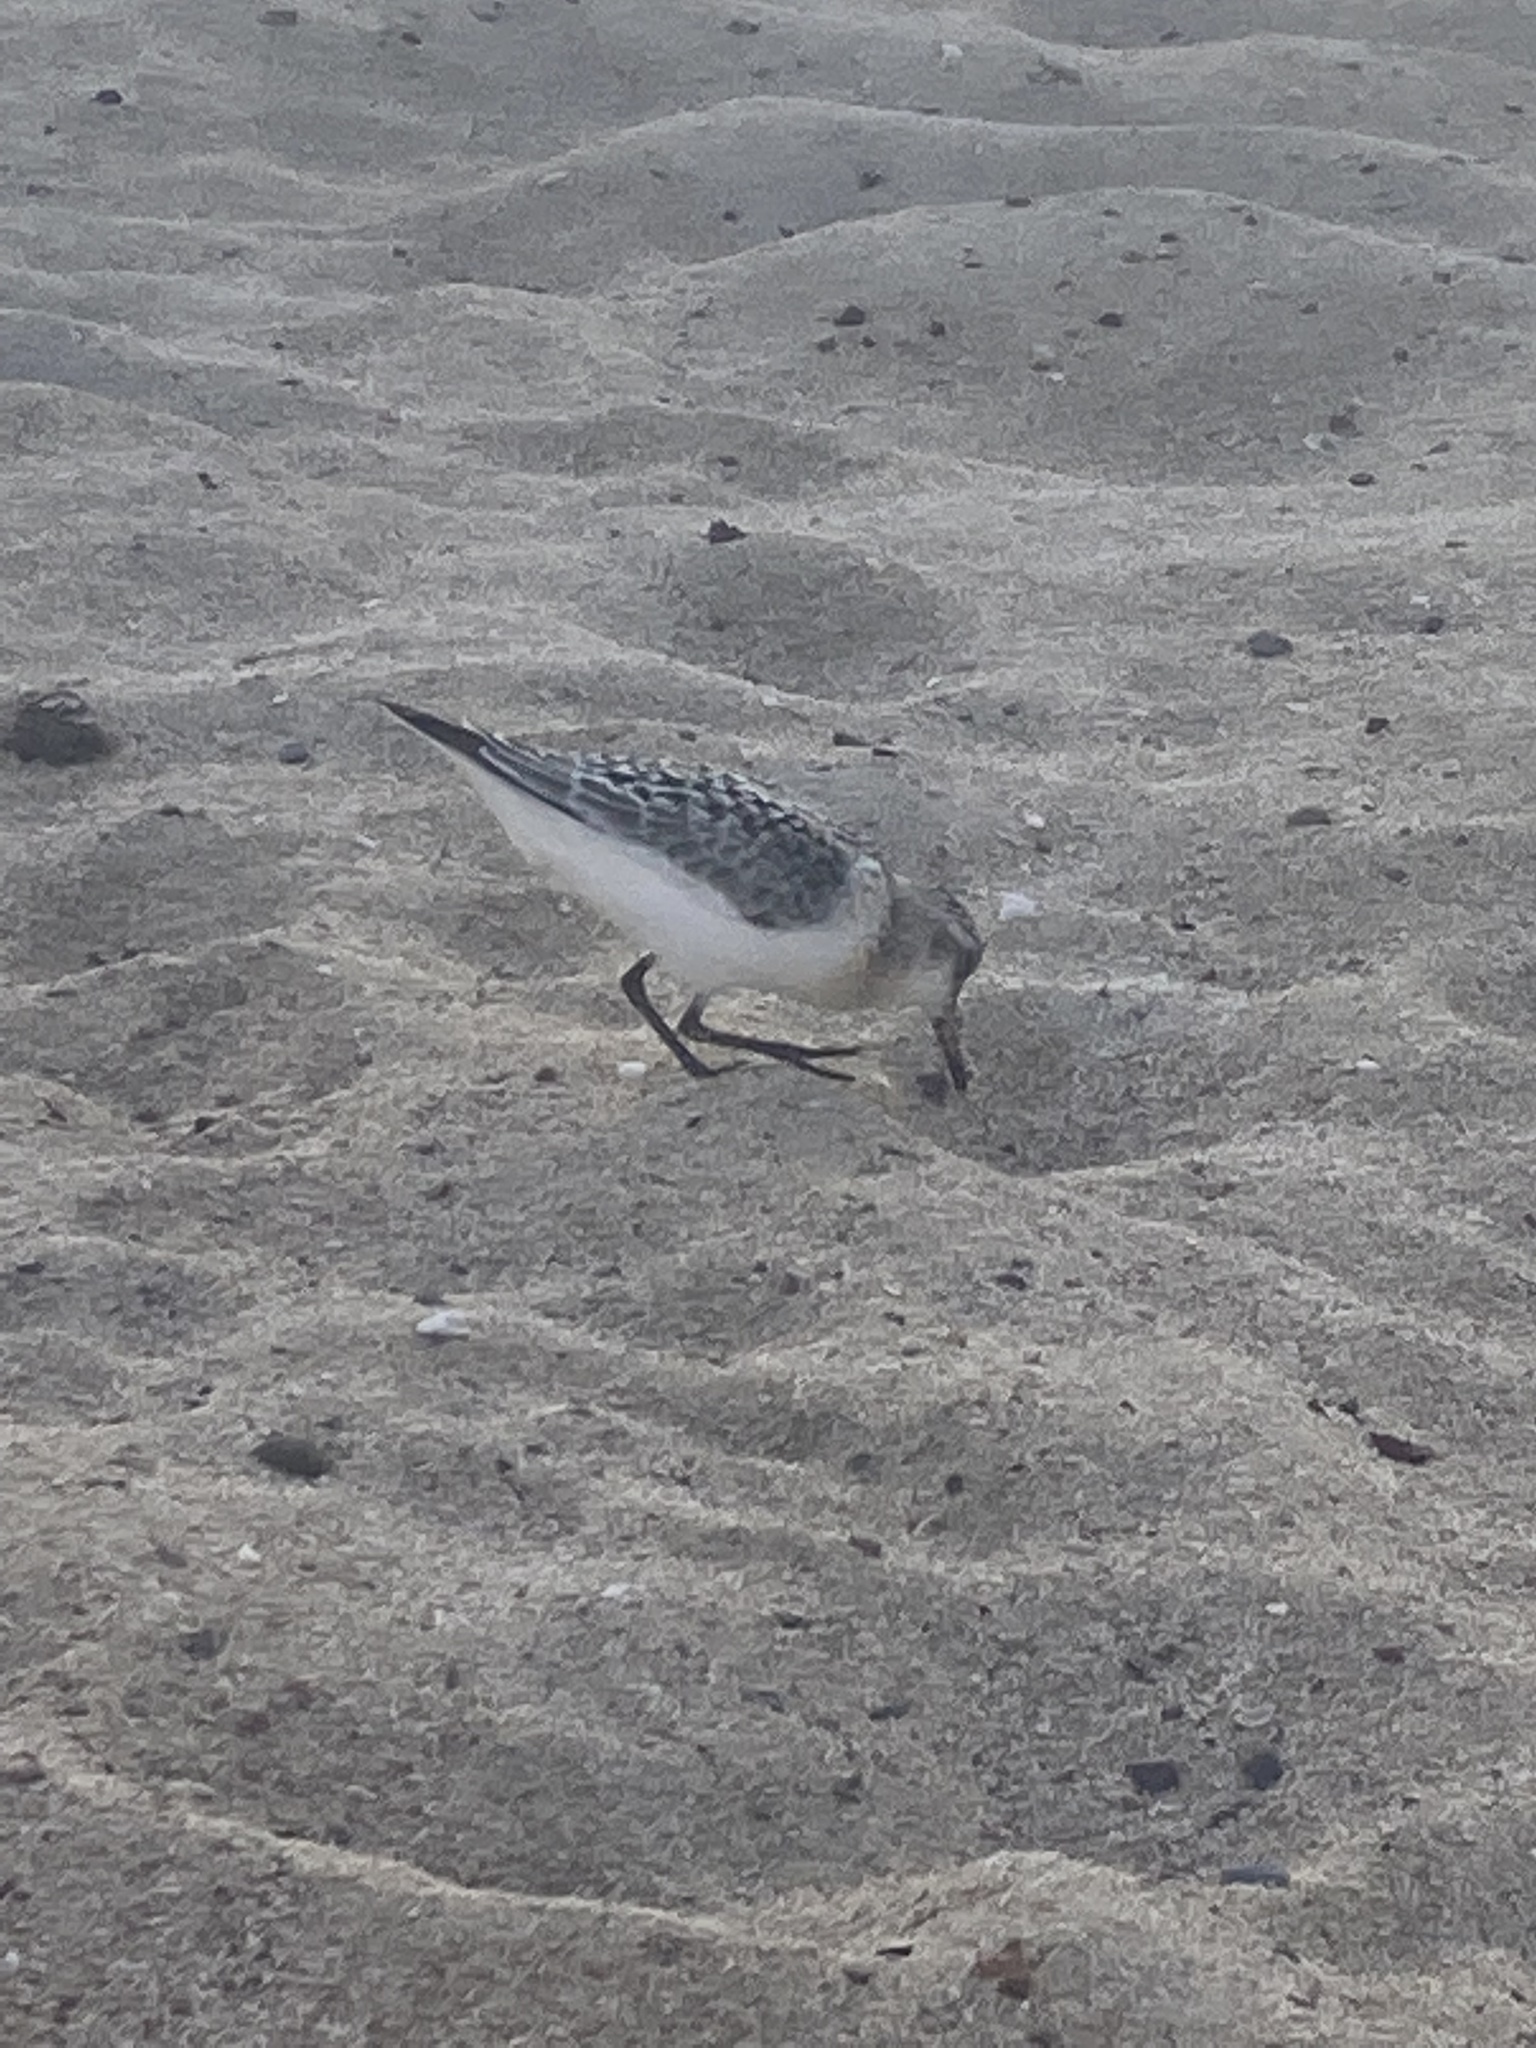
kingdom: Animalia
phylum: Chordata
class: Aves
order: Charadriiformes
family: Scolopacidae
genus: Calidris
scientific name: Calidris alba
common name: Sanderling
